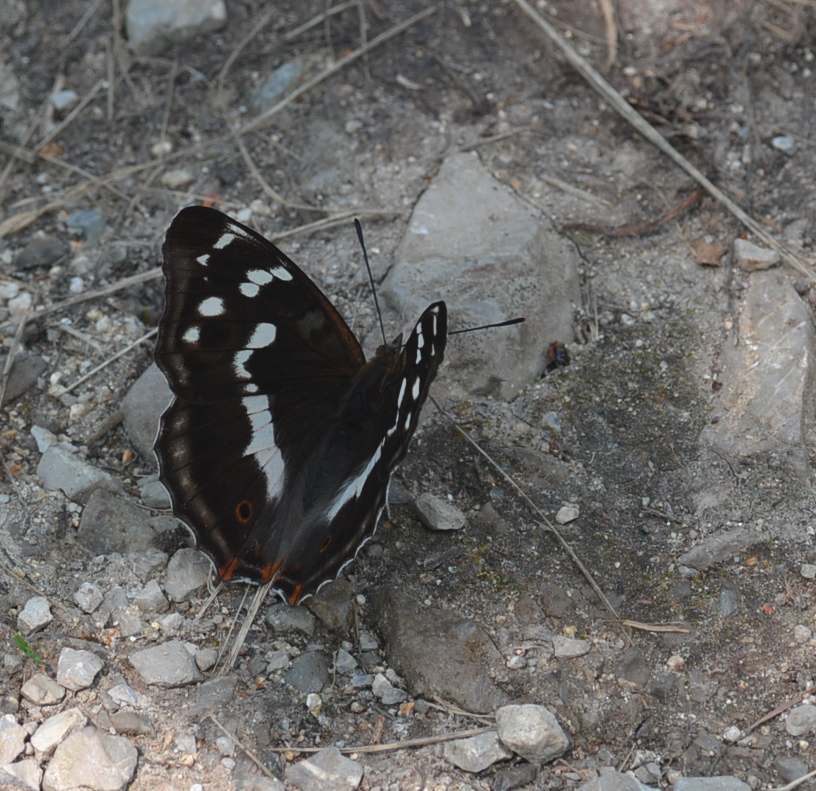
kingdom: Animalia
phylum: Arthropoda
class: Insecta
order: Lepidoptera
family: Nymphalidae
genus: Apatura
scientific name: Apatura iris
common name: Purple emperor
